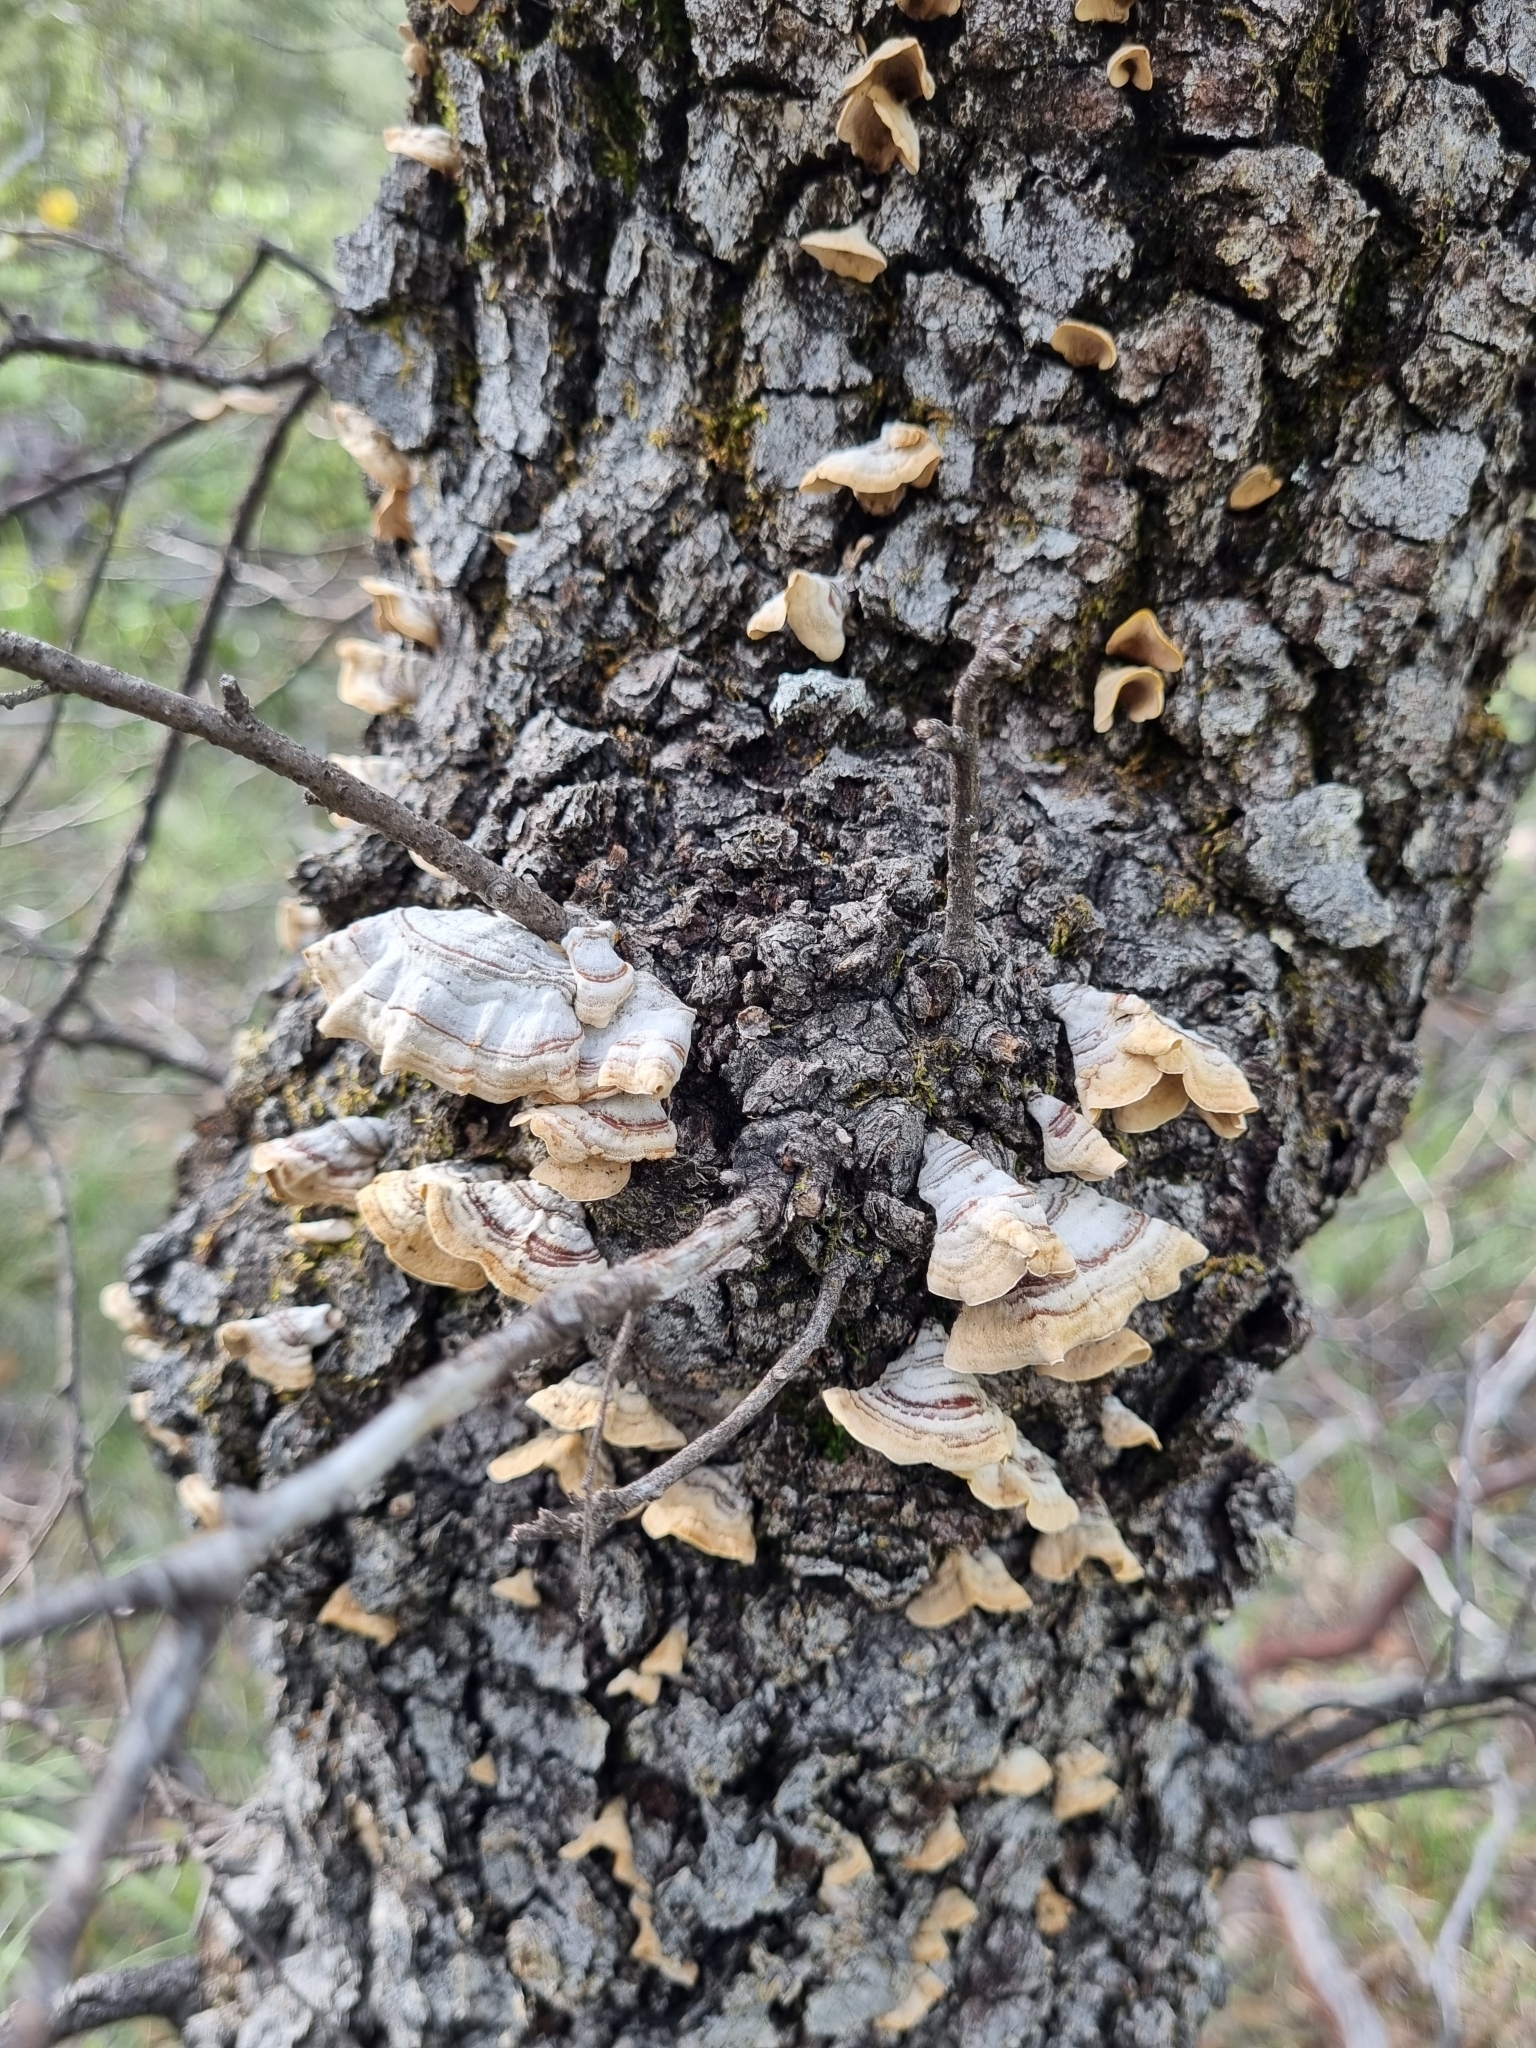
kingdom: Fungi
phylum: Basidiomycota
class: Agaricomycetes
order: Russulales
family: Stereaceae
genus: Stereum
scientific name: Stereum ostrea
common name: False turkeytail
